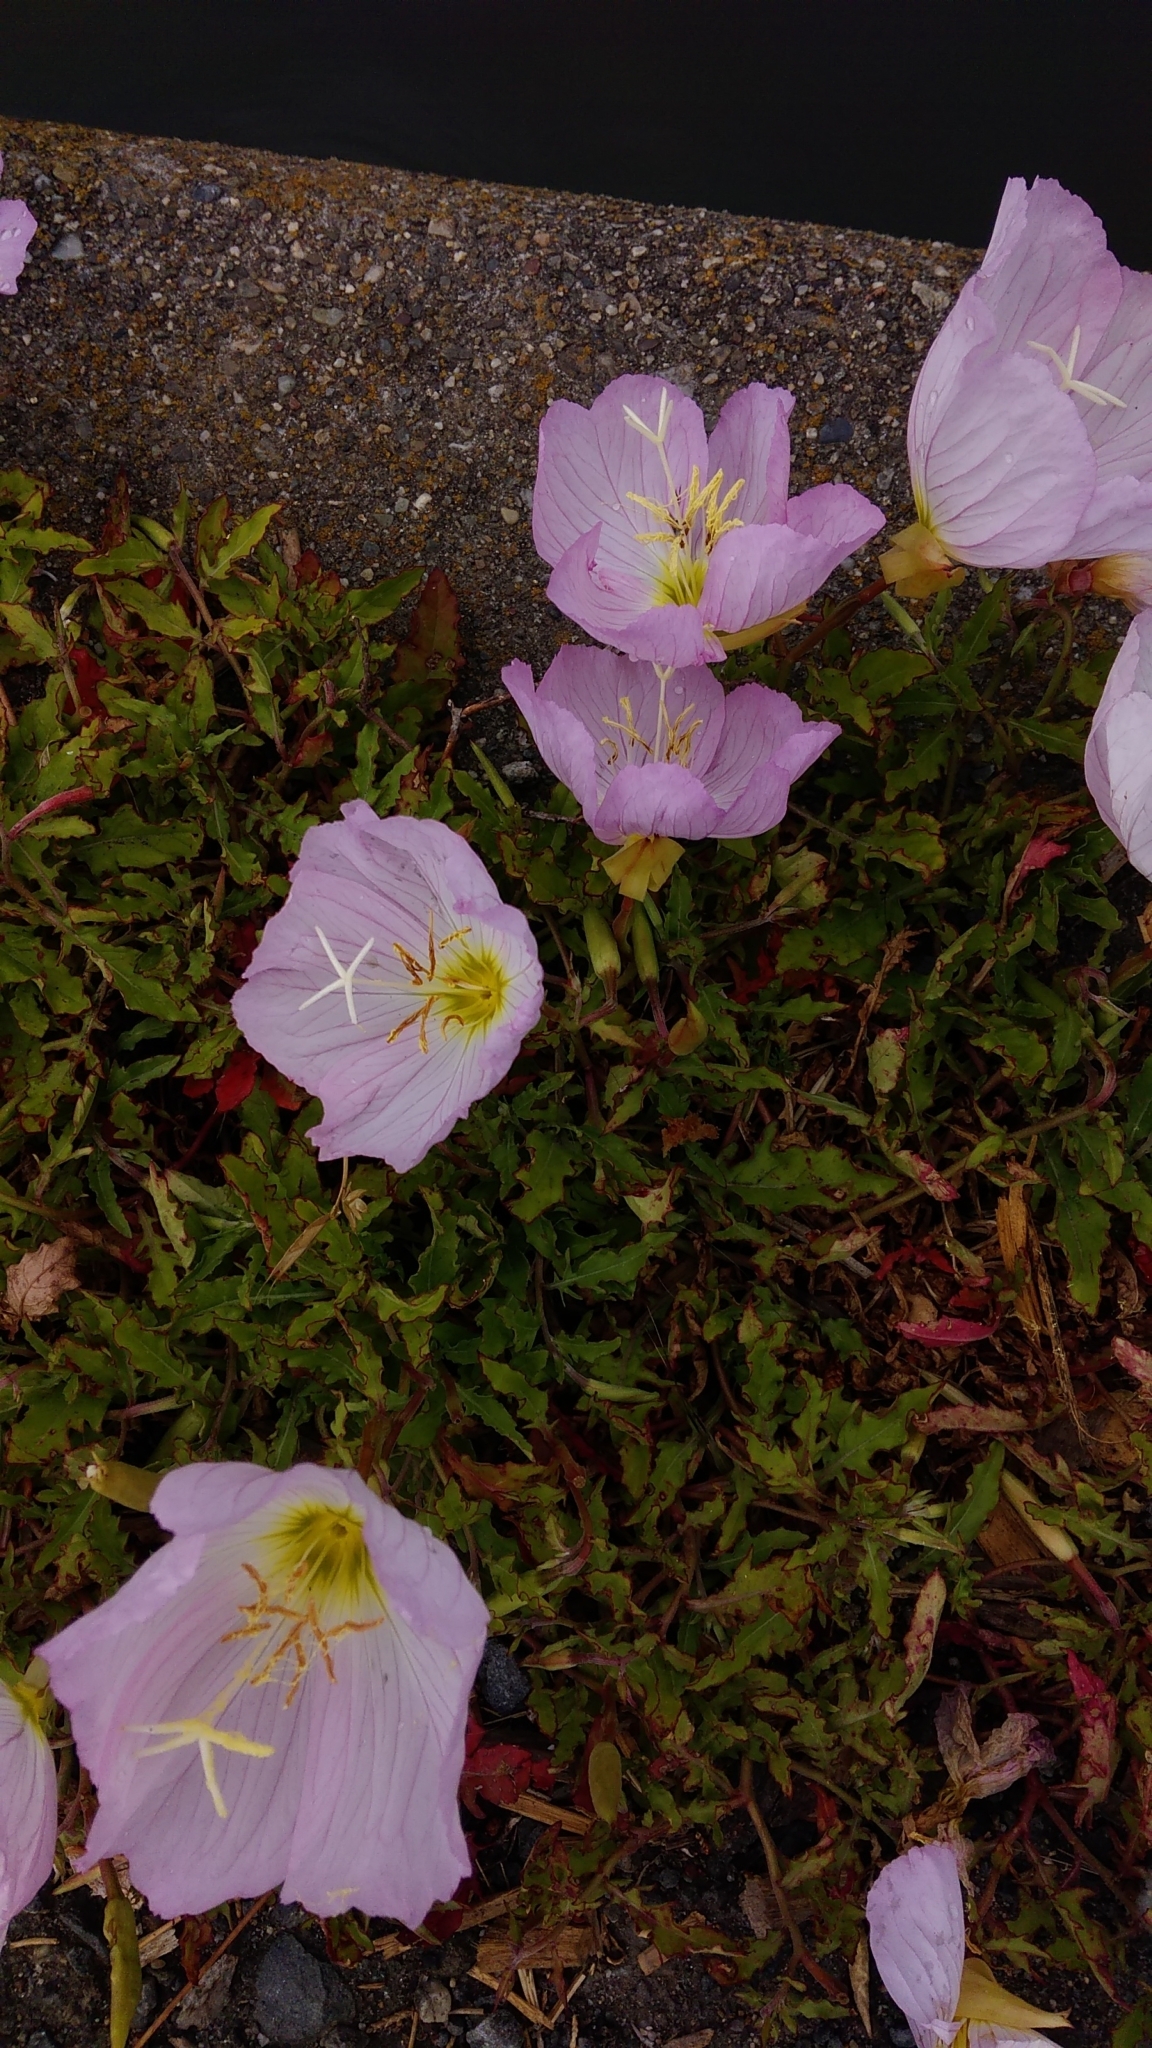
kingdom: Plantae
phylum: Tracheophyta
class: Magnoliopsida
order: Myrtales
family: Onagraceae
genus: Oenothera
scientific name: Oenothera speciosa
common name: White evening-primrose
